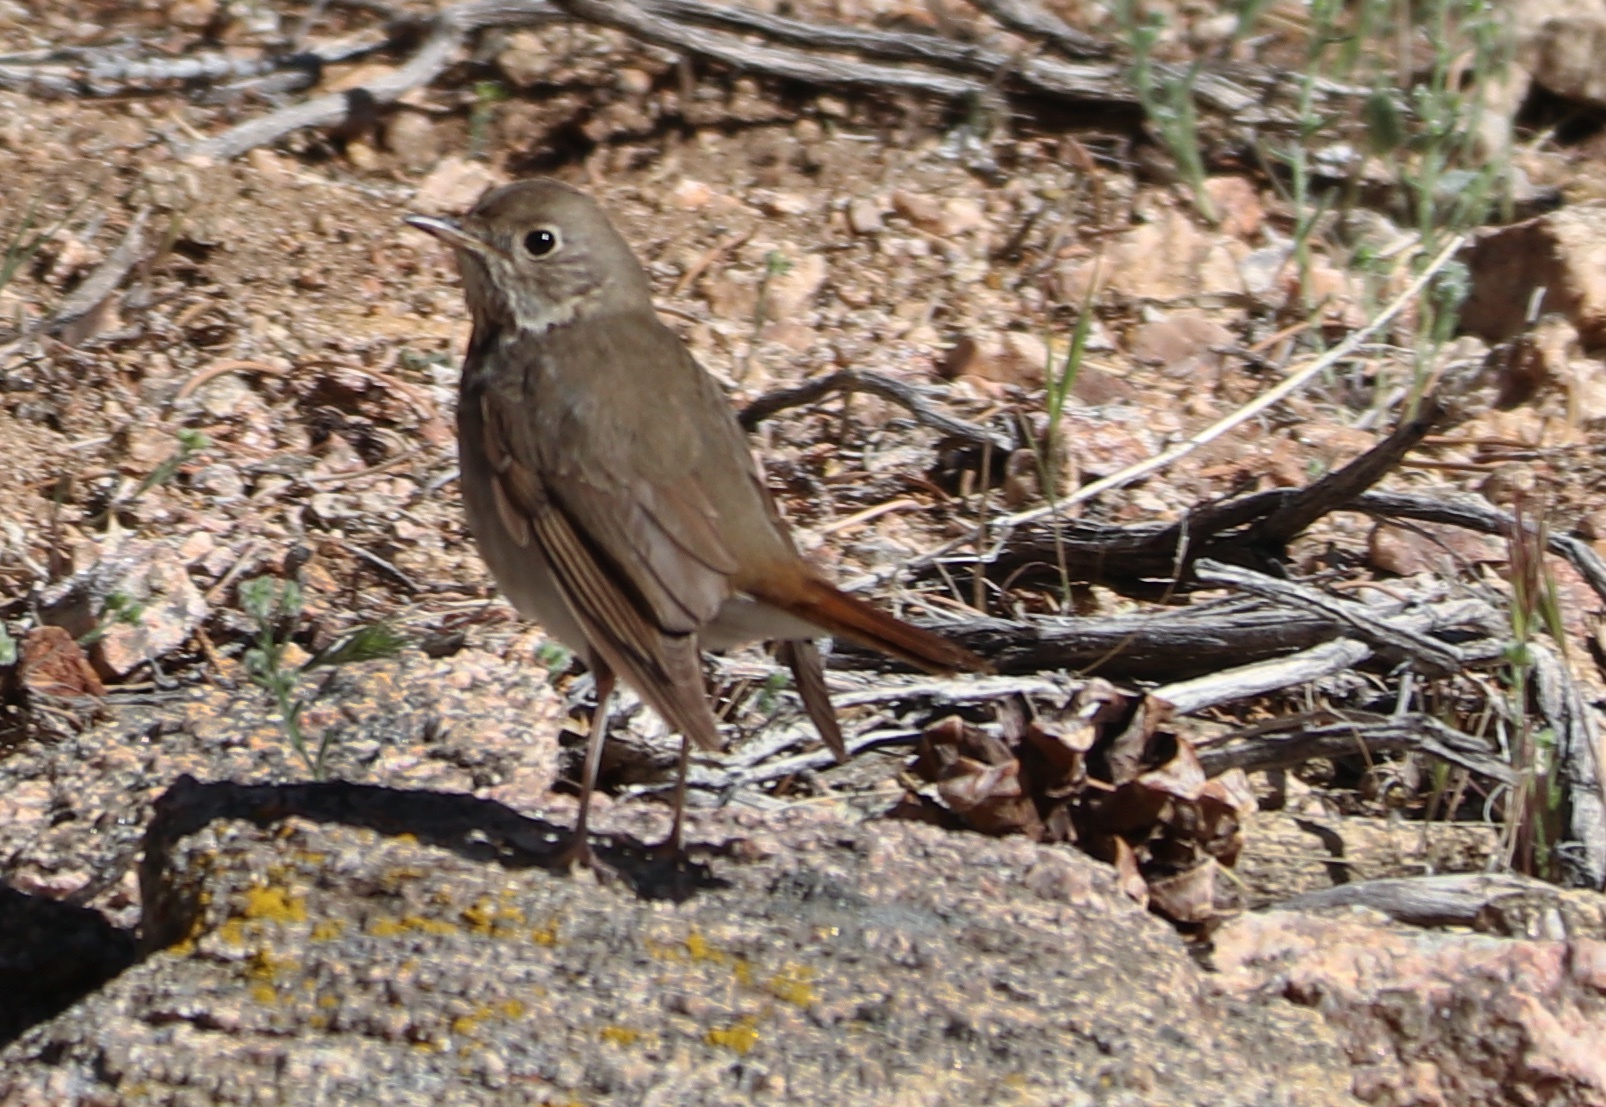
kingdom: Animalia
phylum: Chordata
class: Aves
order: Passeriformes
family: Turdidae
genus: Catharus
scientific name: Catharus guttatus
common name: Hermit thrush
